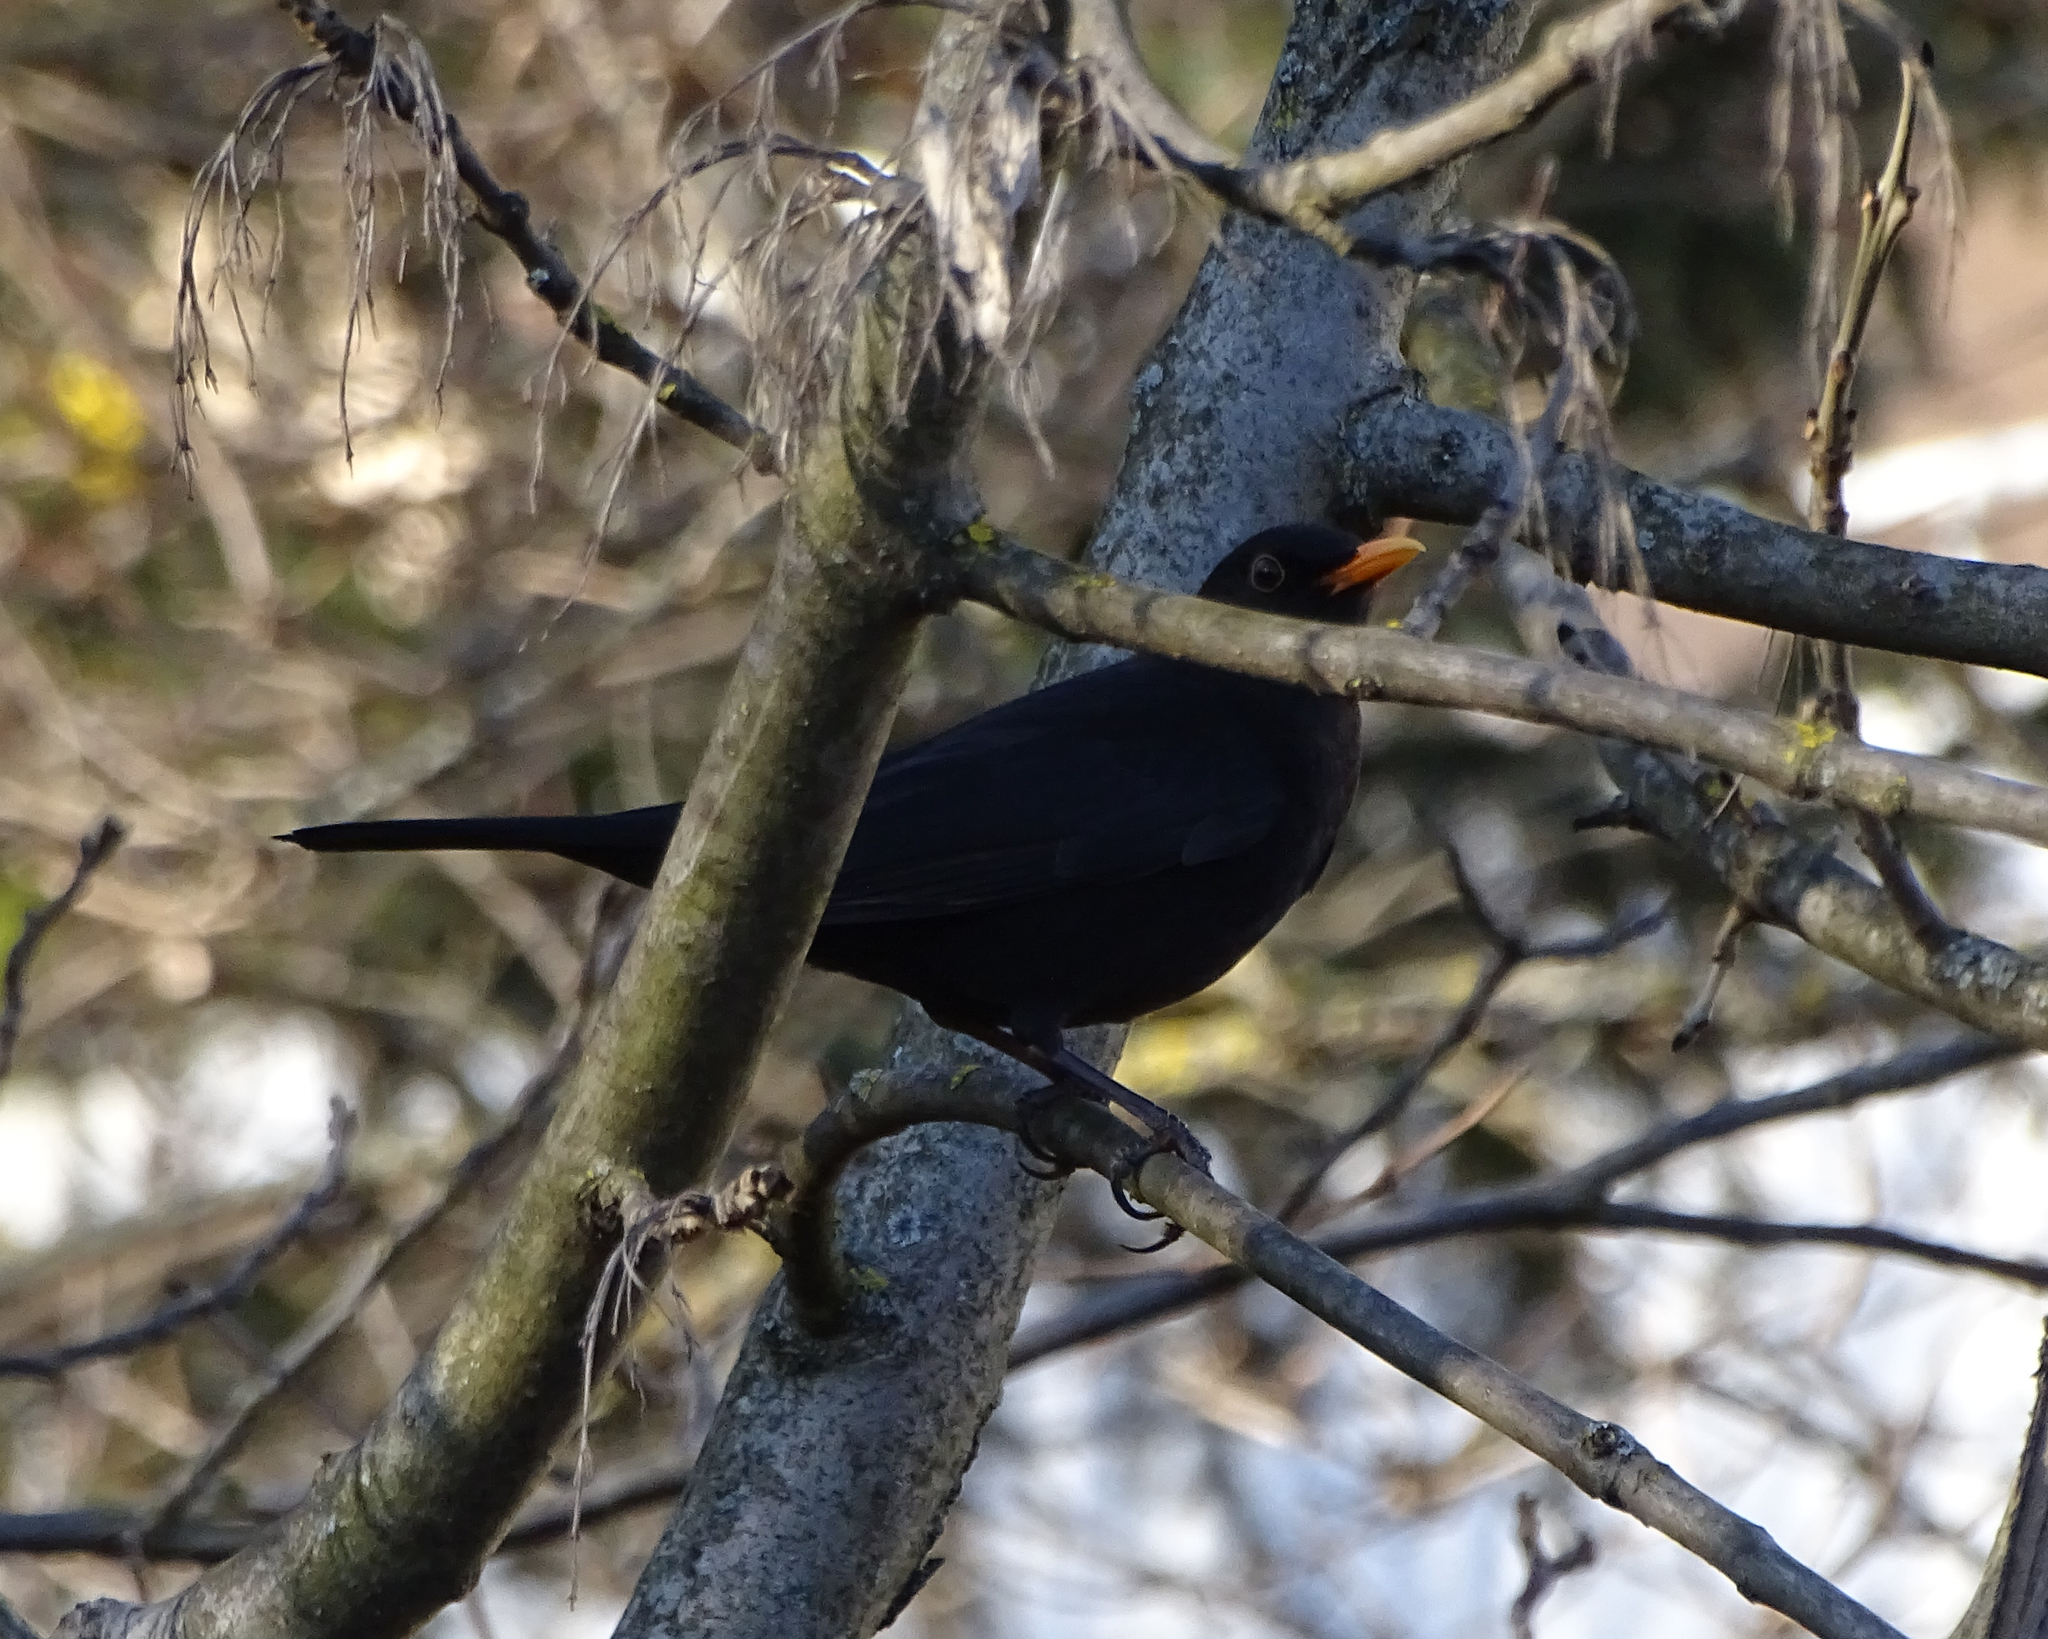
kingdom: Animalia
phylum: Chordata
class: Aves
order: Passeriformes
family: Turdidae
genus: Turdus
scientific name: Turdus merula
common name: Common blackbird
